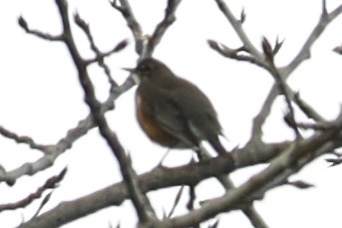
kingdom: Animalia
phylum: Chordata
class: Aves
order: Passeriformes
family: Turdidae
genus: Turdus
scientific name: Turdus migratorius
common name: American robin
